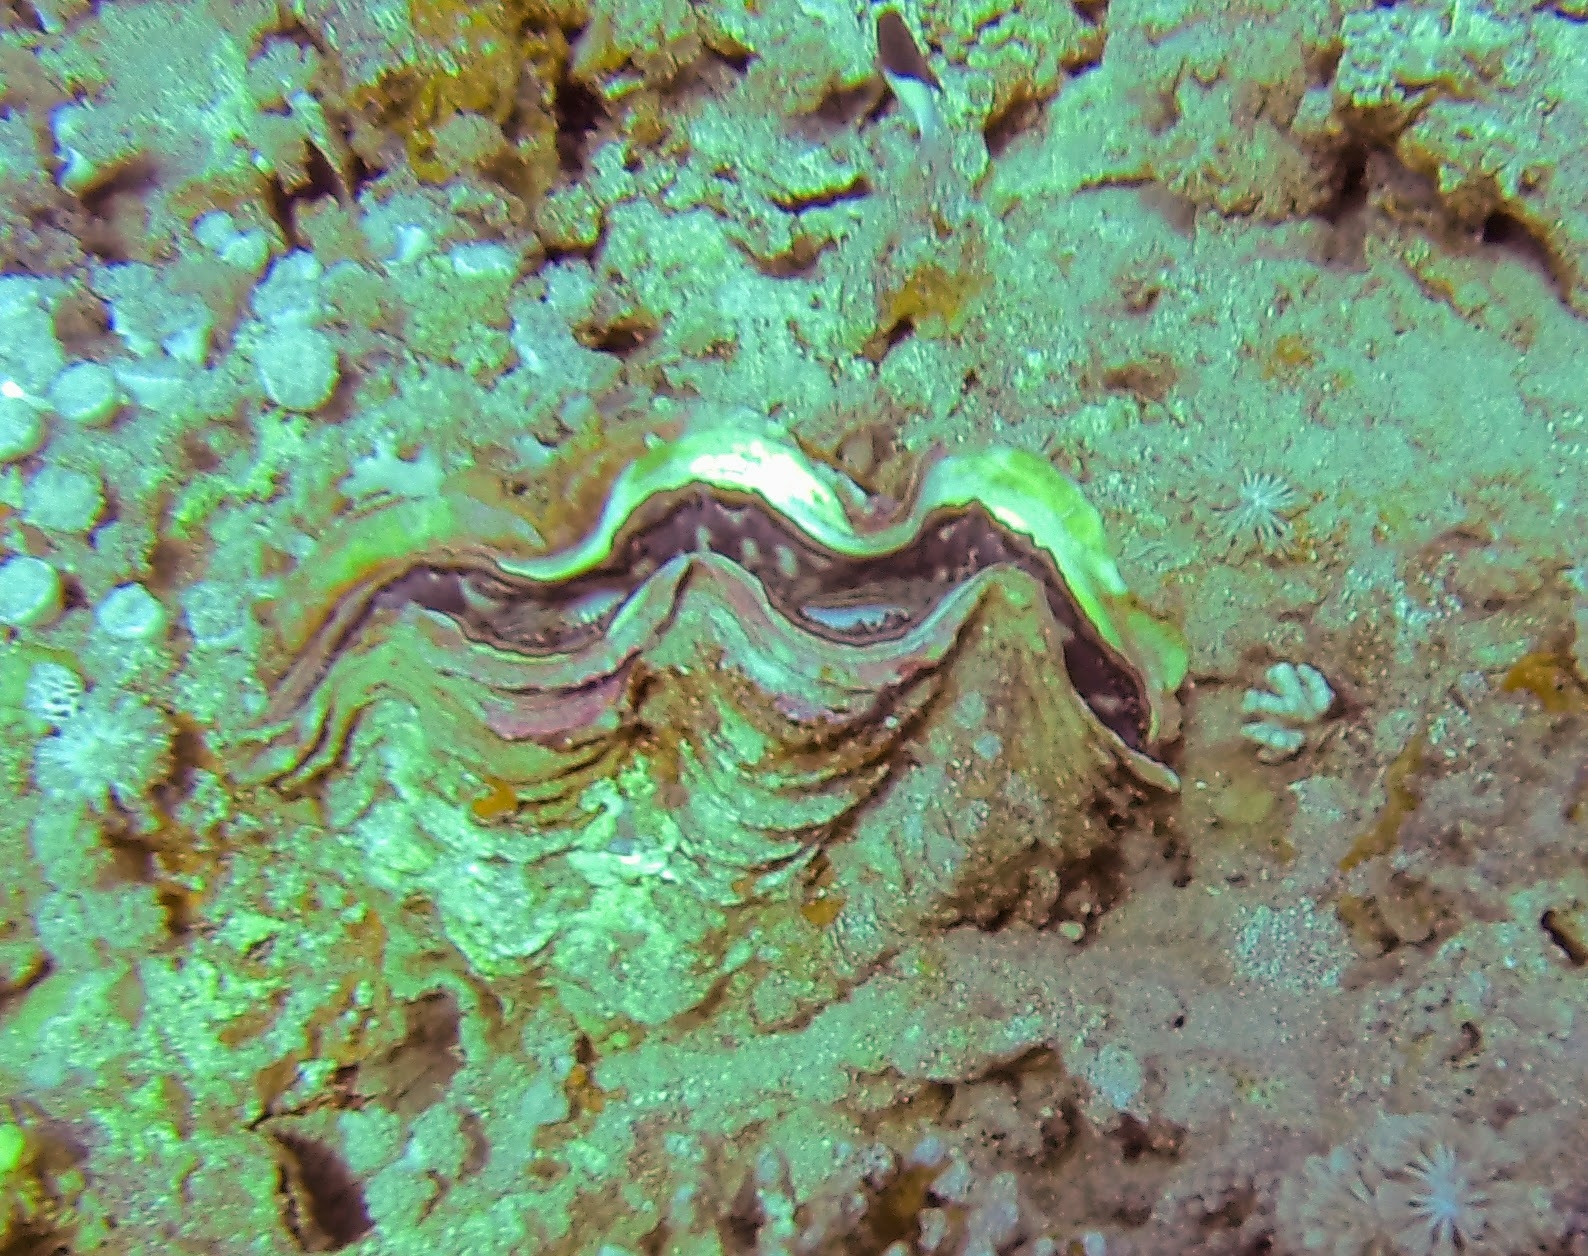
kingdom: Animalia
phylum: Mollusca
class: Bivalvia
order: Cardiida
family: Cardiidae
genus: Tridacna
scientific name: Tridacna maxima
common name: Small giant clam
